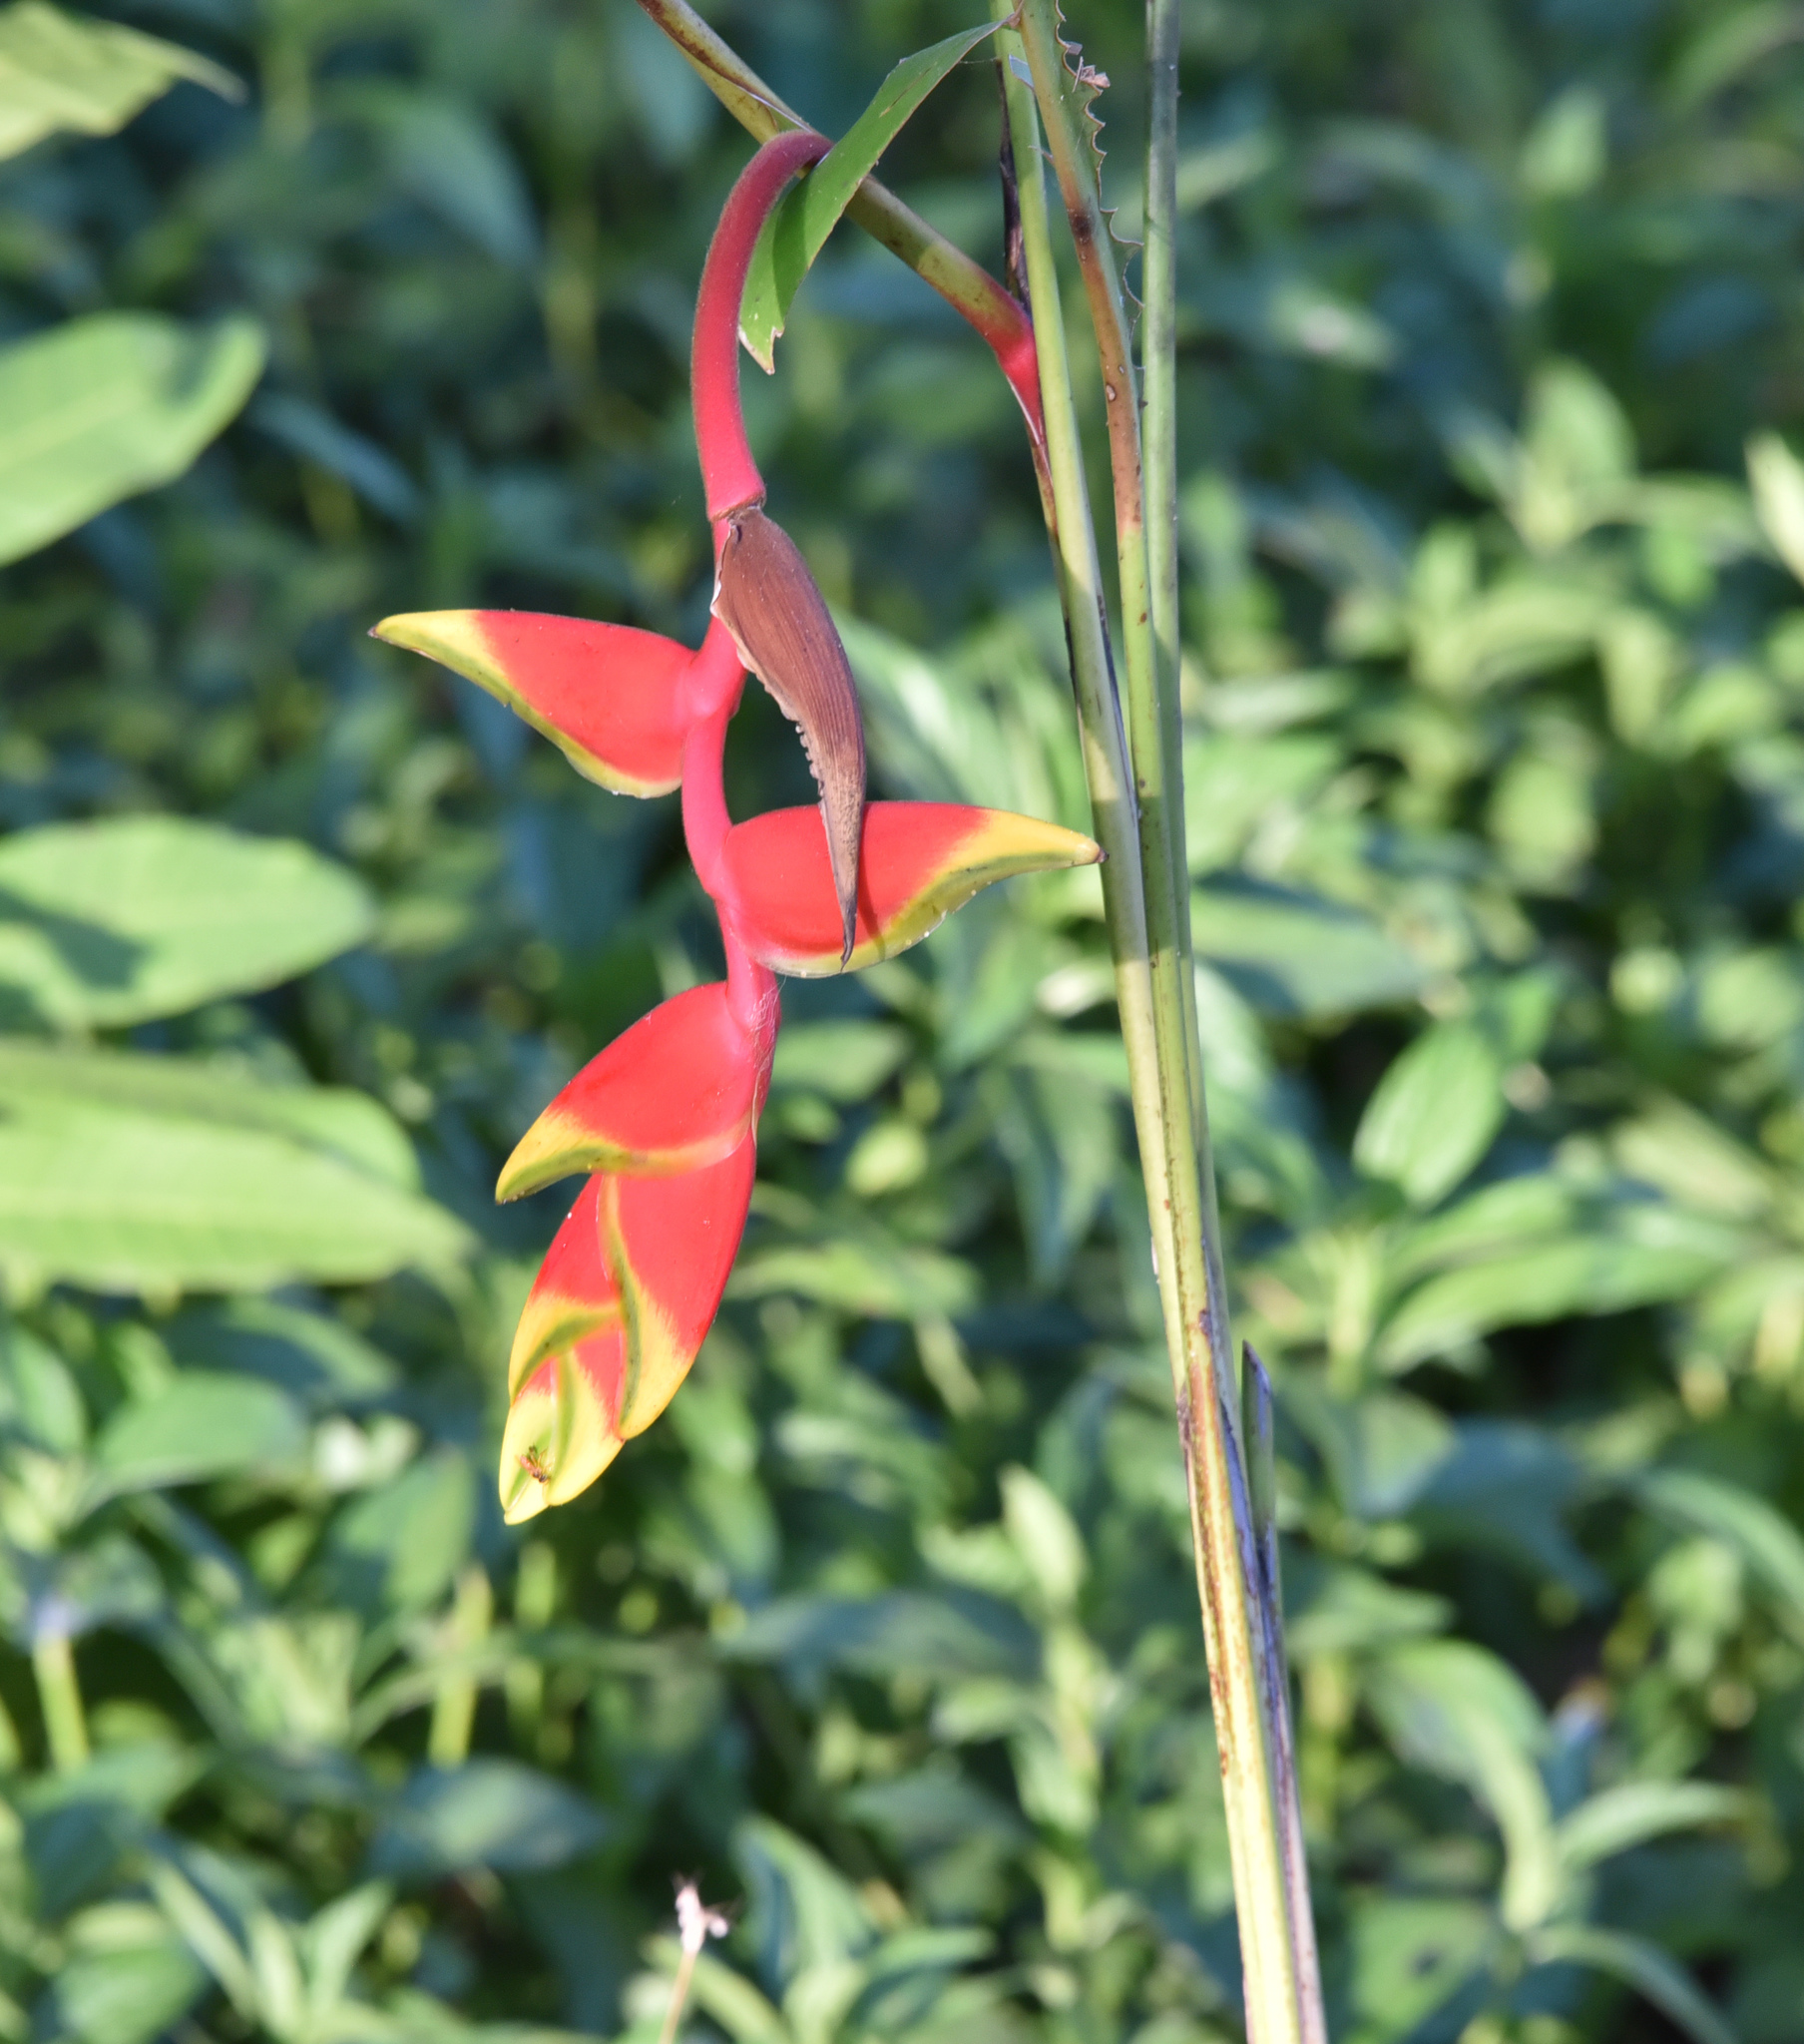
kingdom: Plantae
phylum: Tracheophyta
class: Liliopsida
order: Zingiberales
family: Heliconiaceae
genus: Heliconia
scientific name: Heliconia rostrata
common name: False bird of paradise
